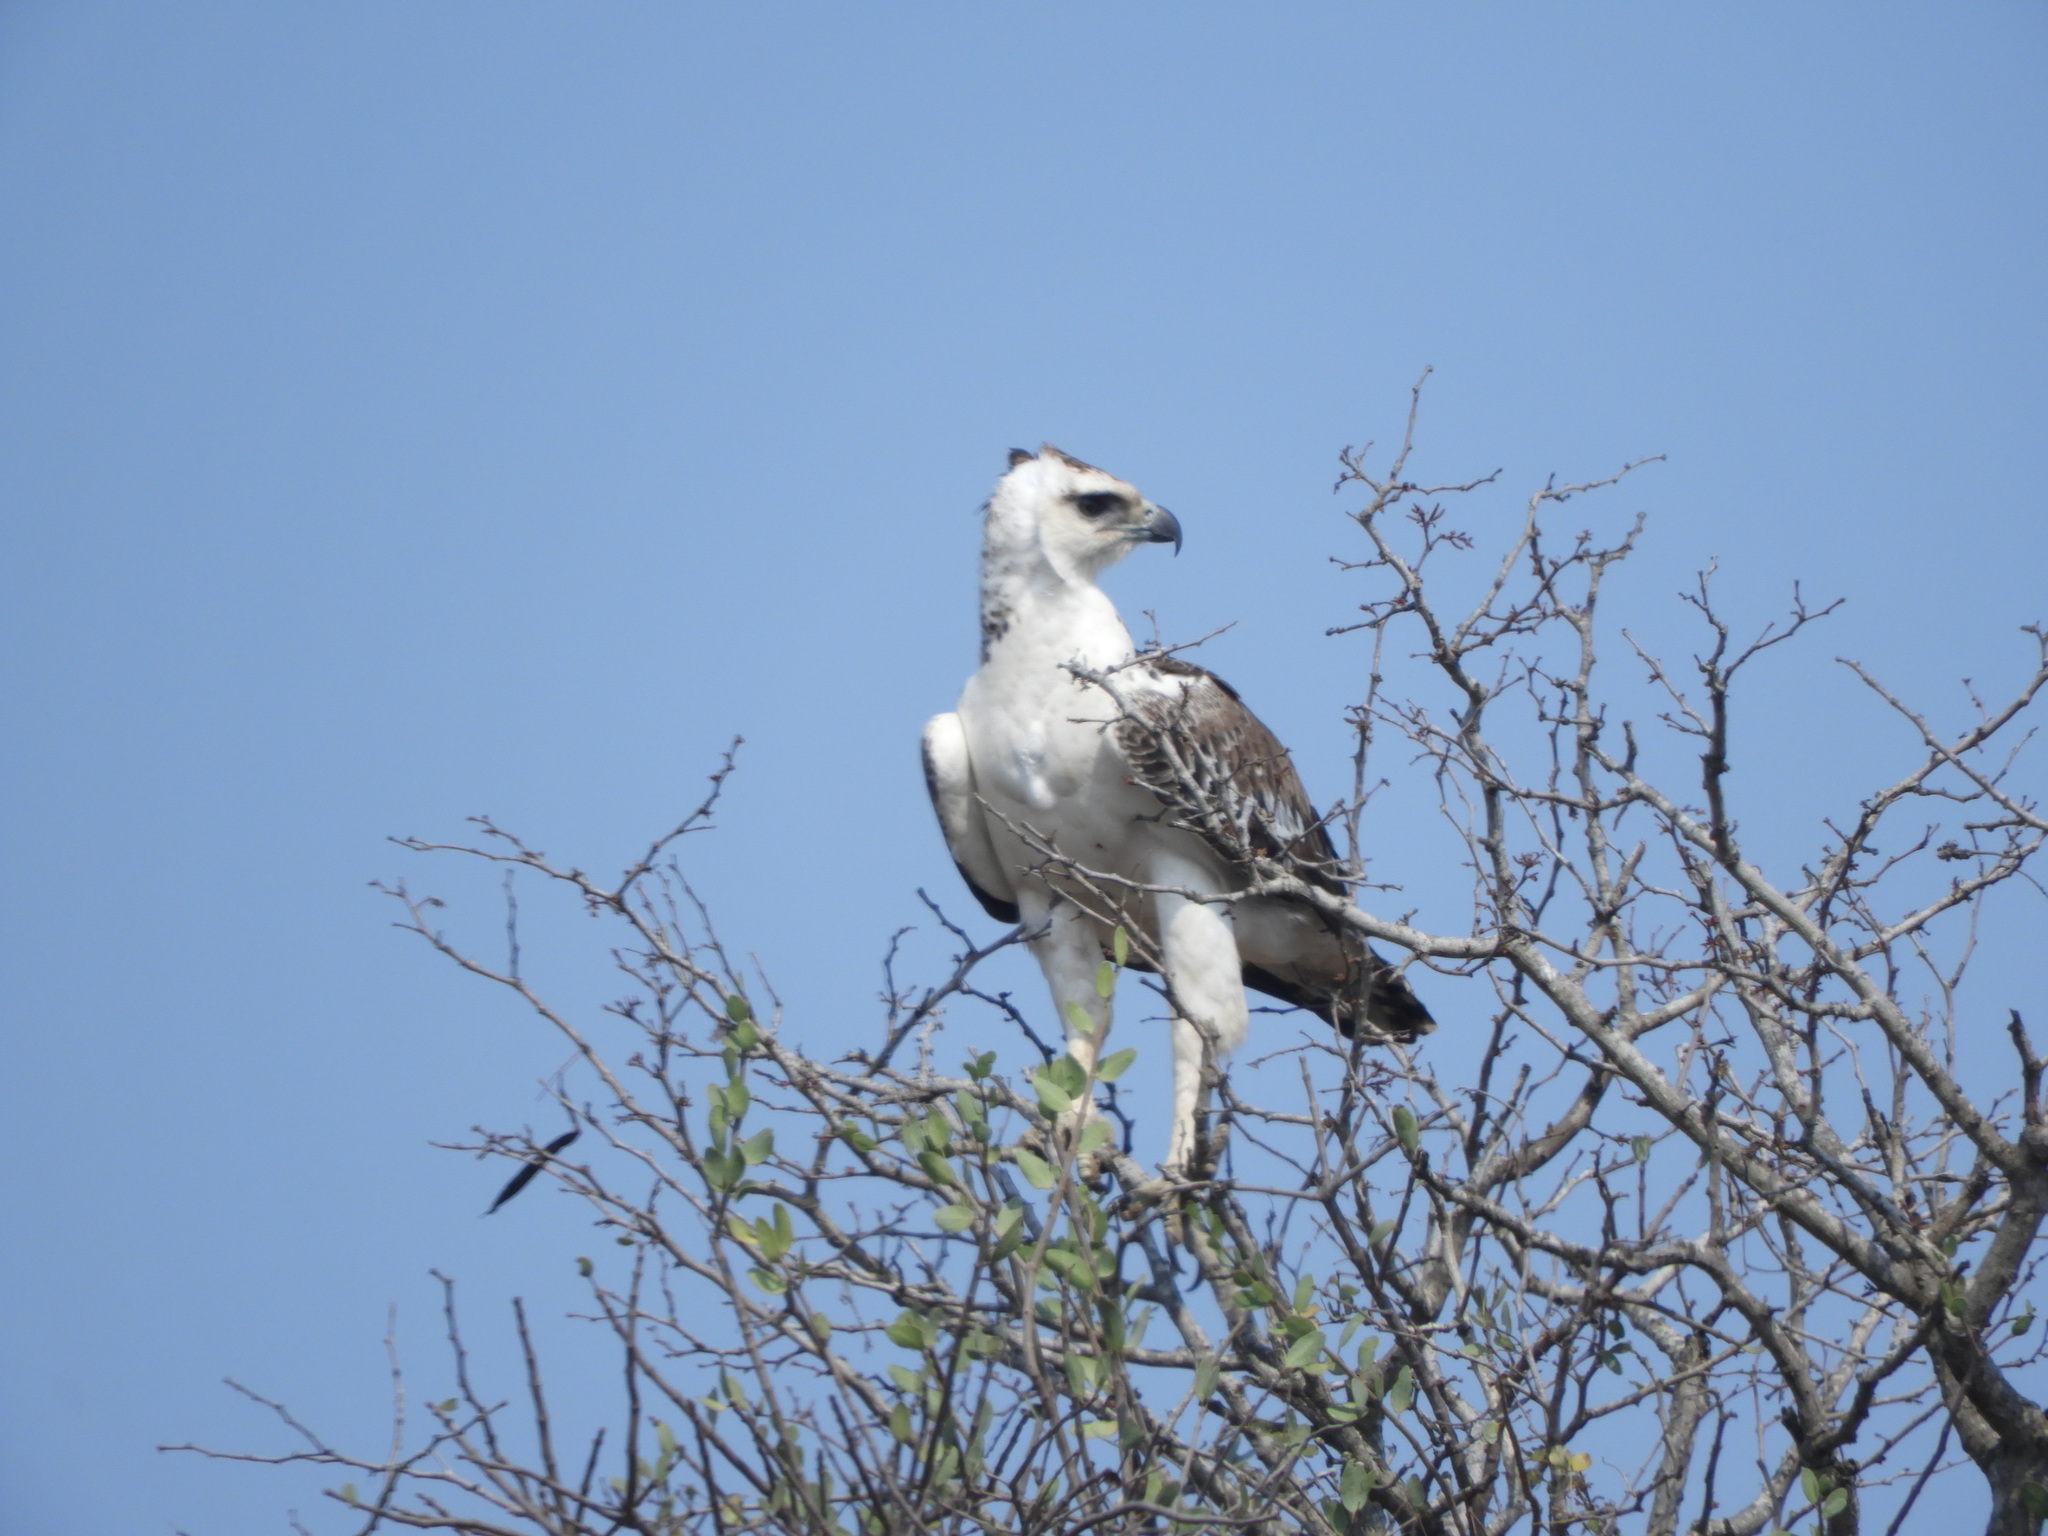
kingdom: Animalia
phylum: Chordata
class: Aves
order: Accipitriformes
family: Accipitridae
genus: Polemaetus
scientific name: Polemaetus bellicosus
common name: Martial eagle
